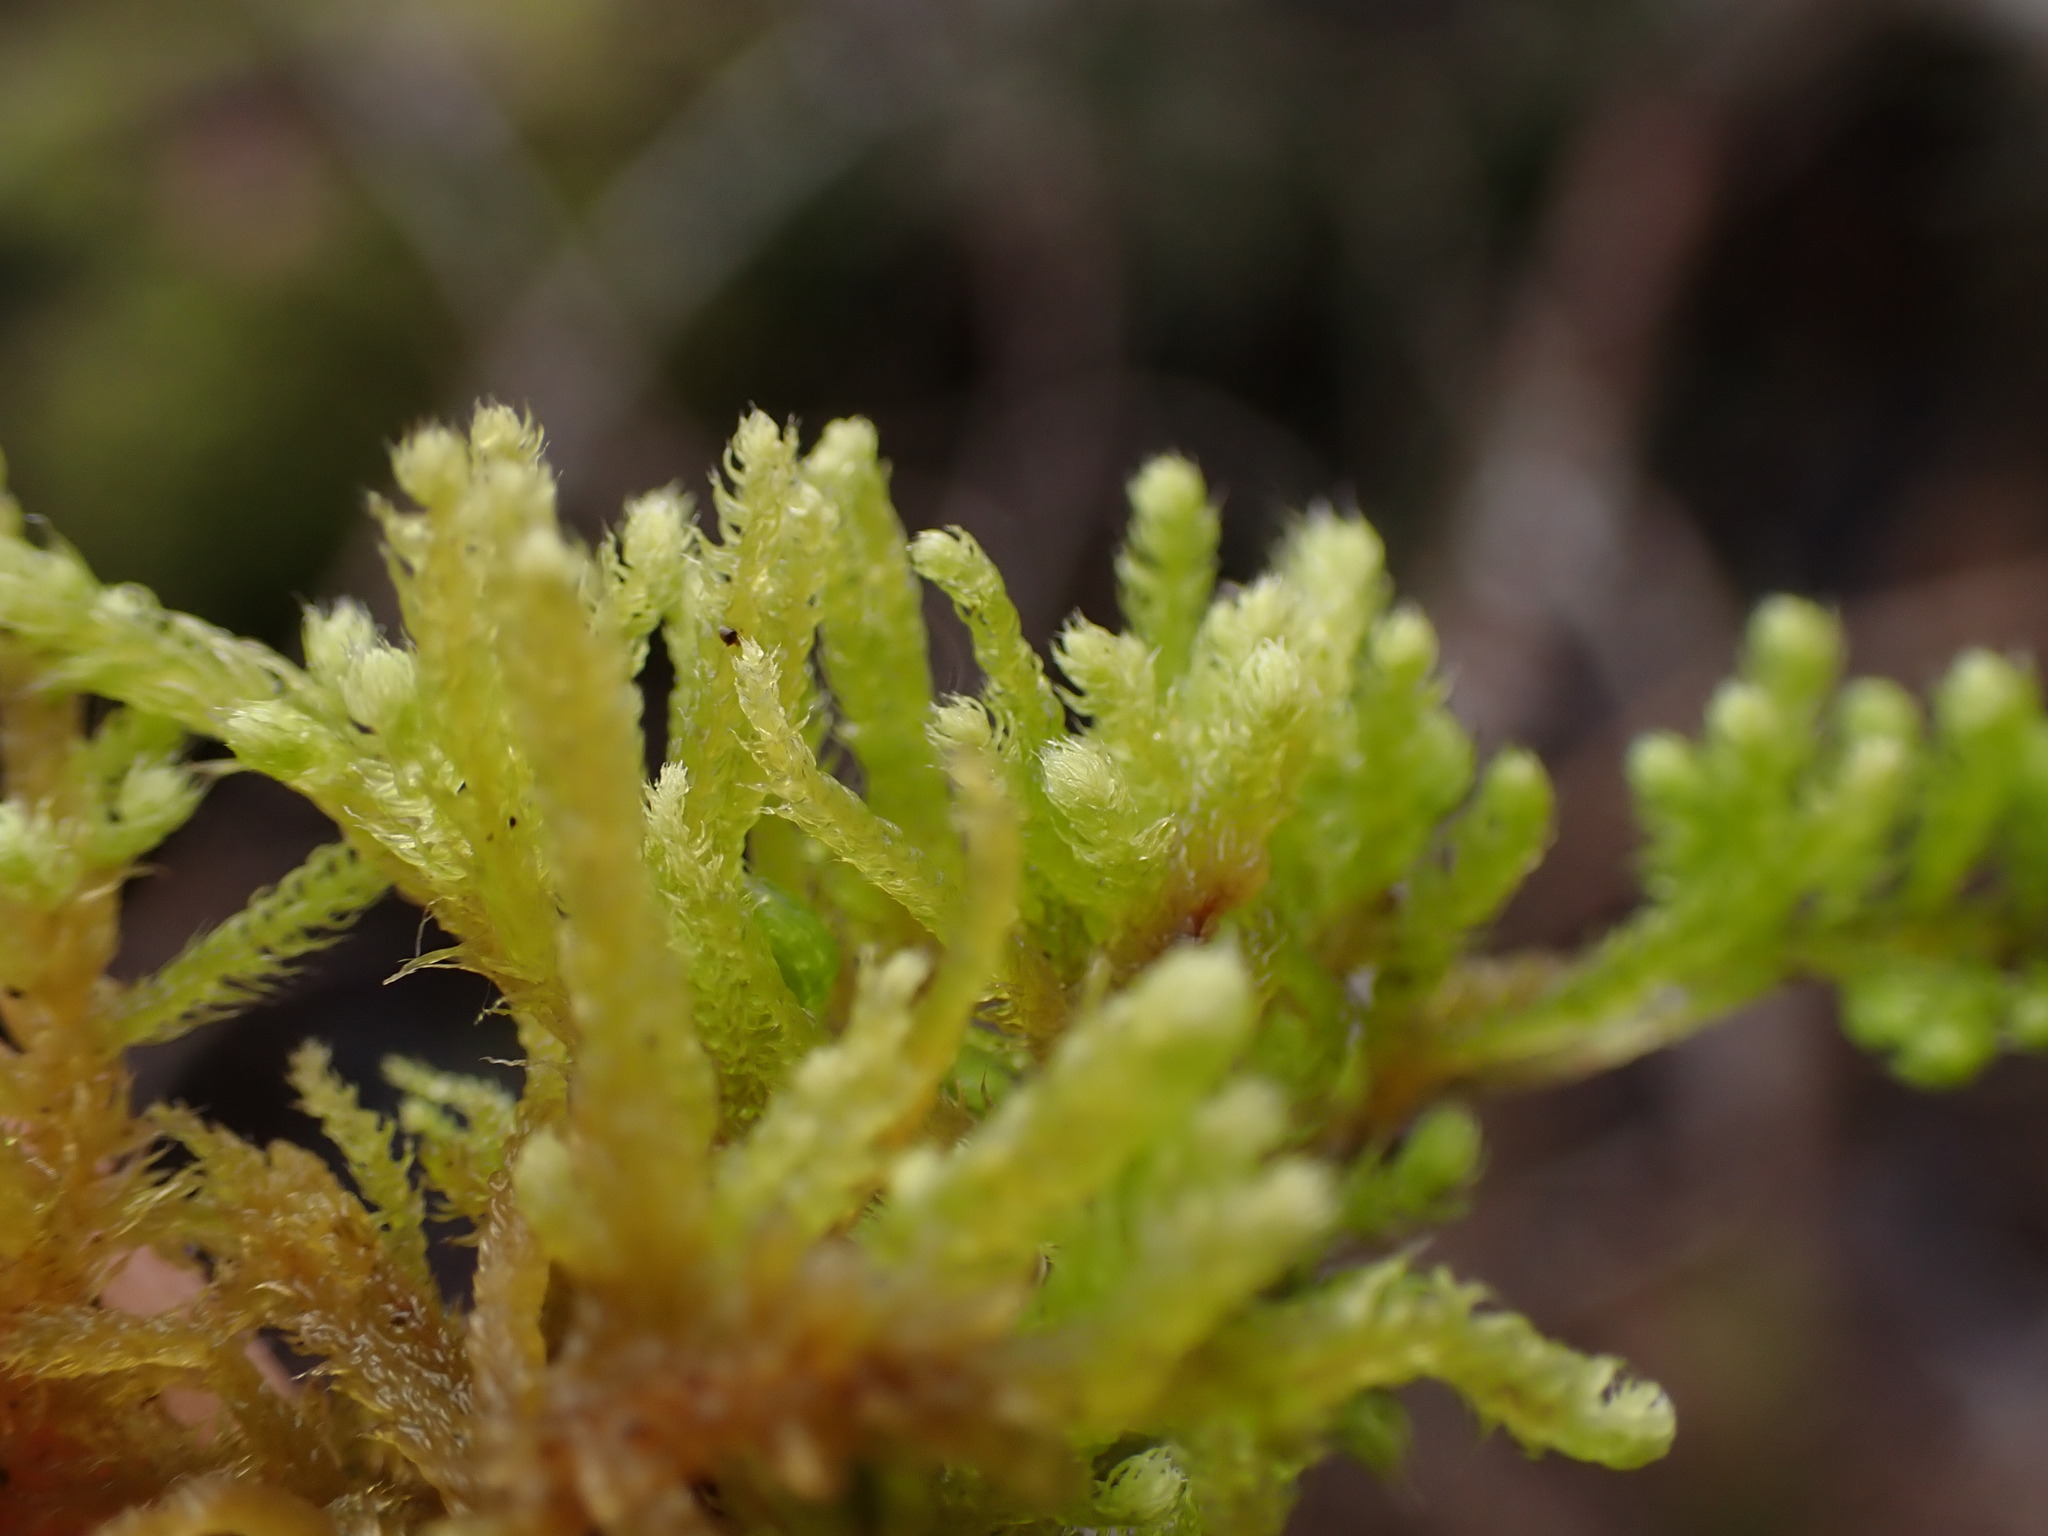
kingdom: Plantae
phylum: Bryophyta
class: Bryopsida
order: Hypnales
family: Brachytheciaceae
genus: Claopodium
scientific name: Claopodium crispifolium
